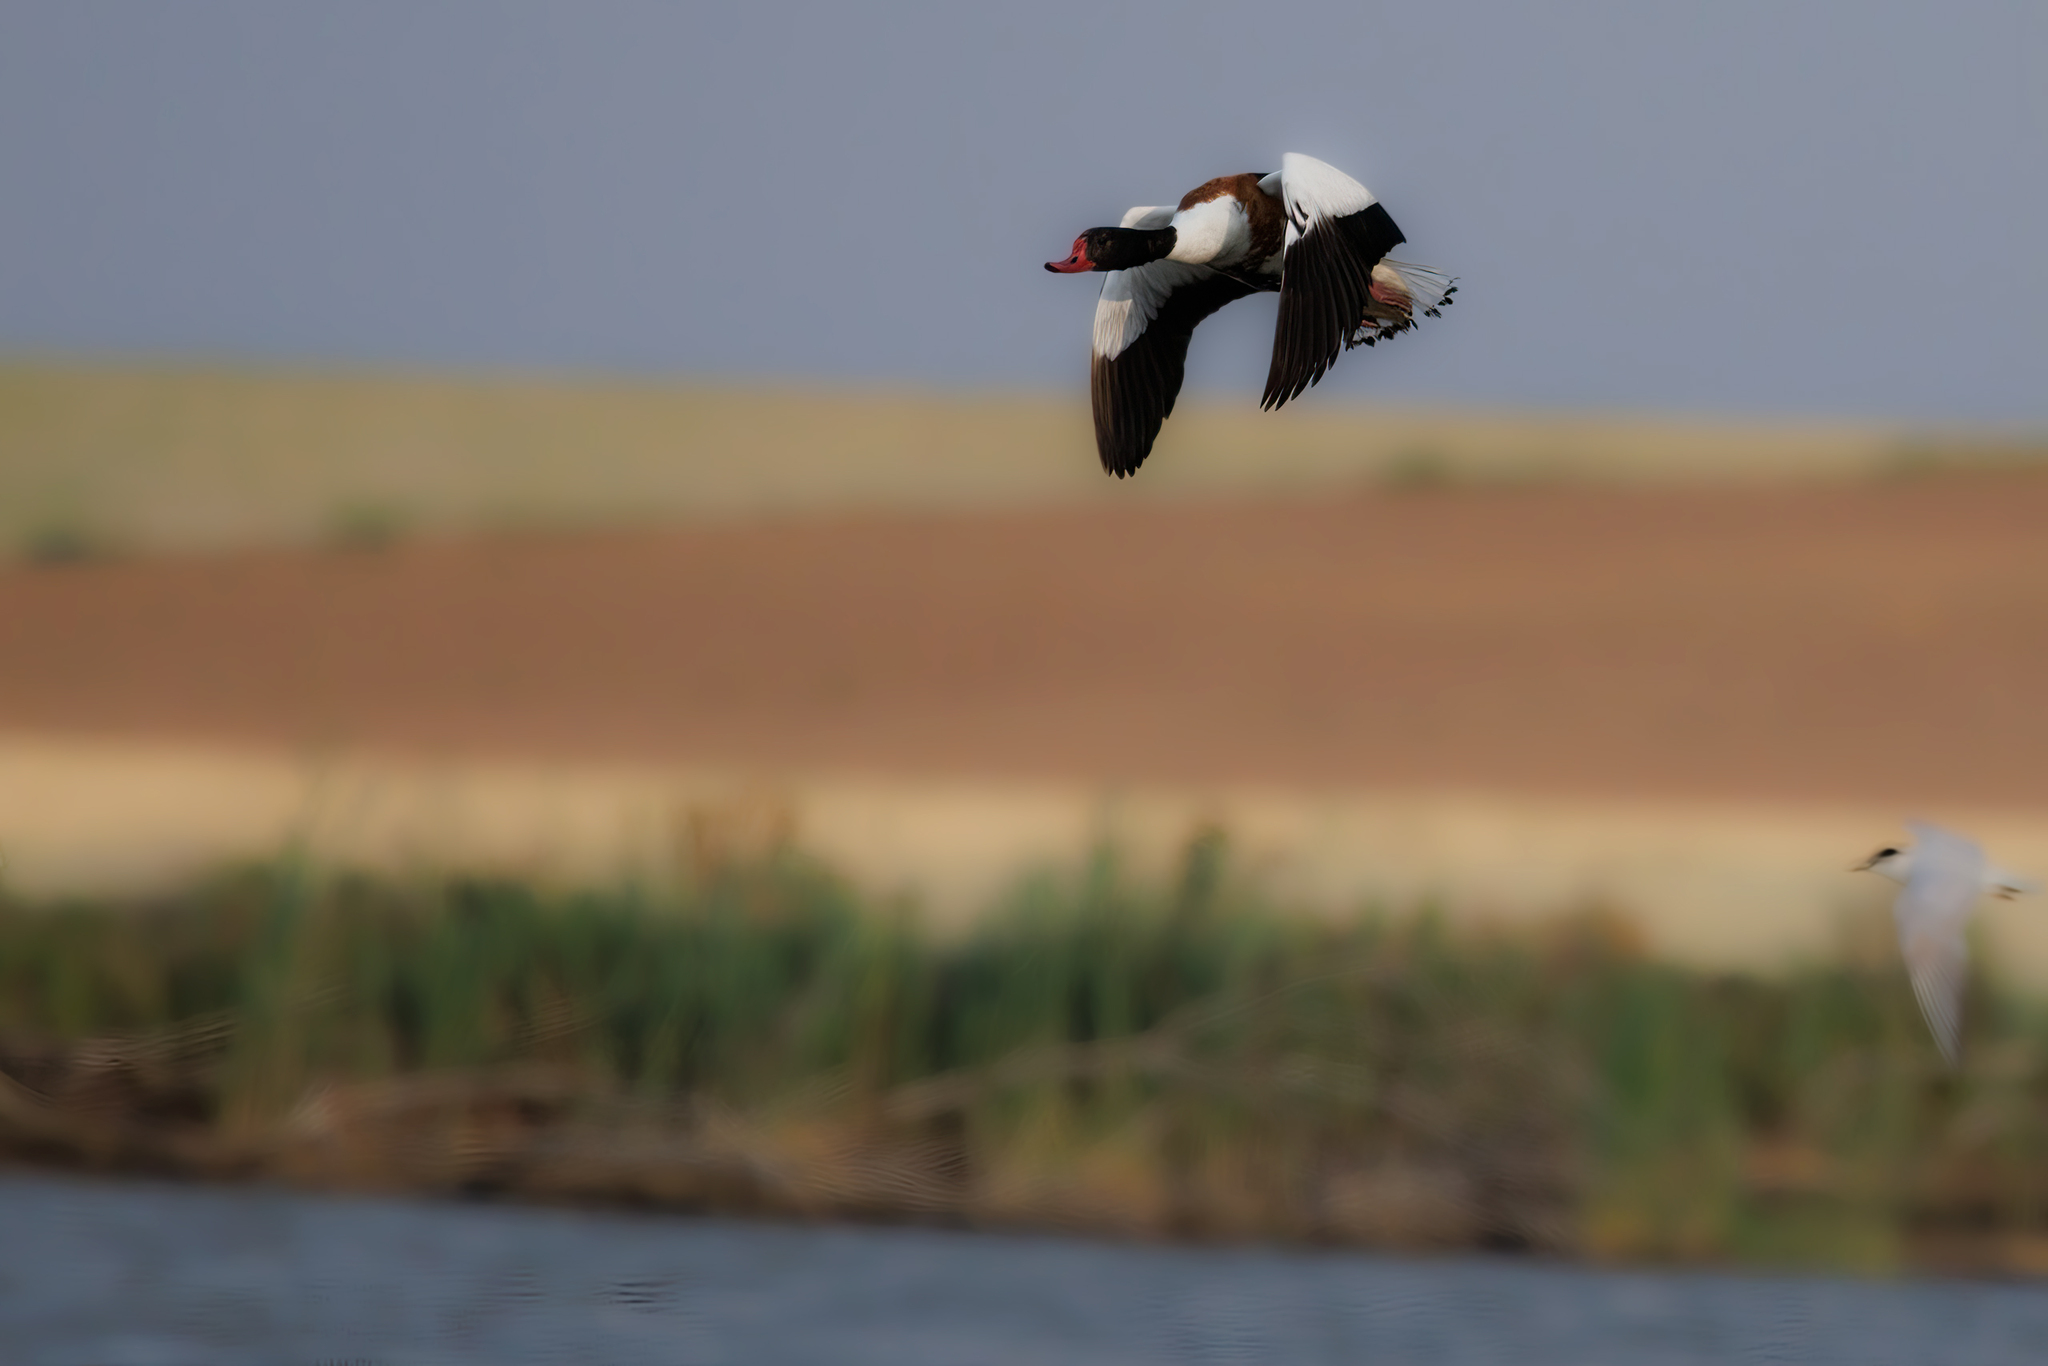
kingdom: Animalia
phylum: Chordata
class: Aves
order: Anseriformes
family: Anatidae
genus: Tadorna
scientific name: Tadorna tadorna
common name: Common shelduck
